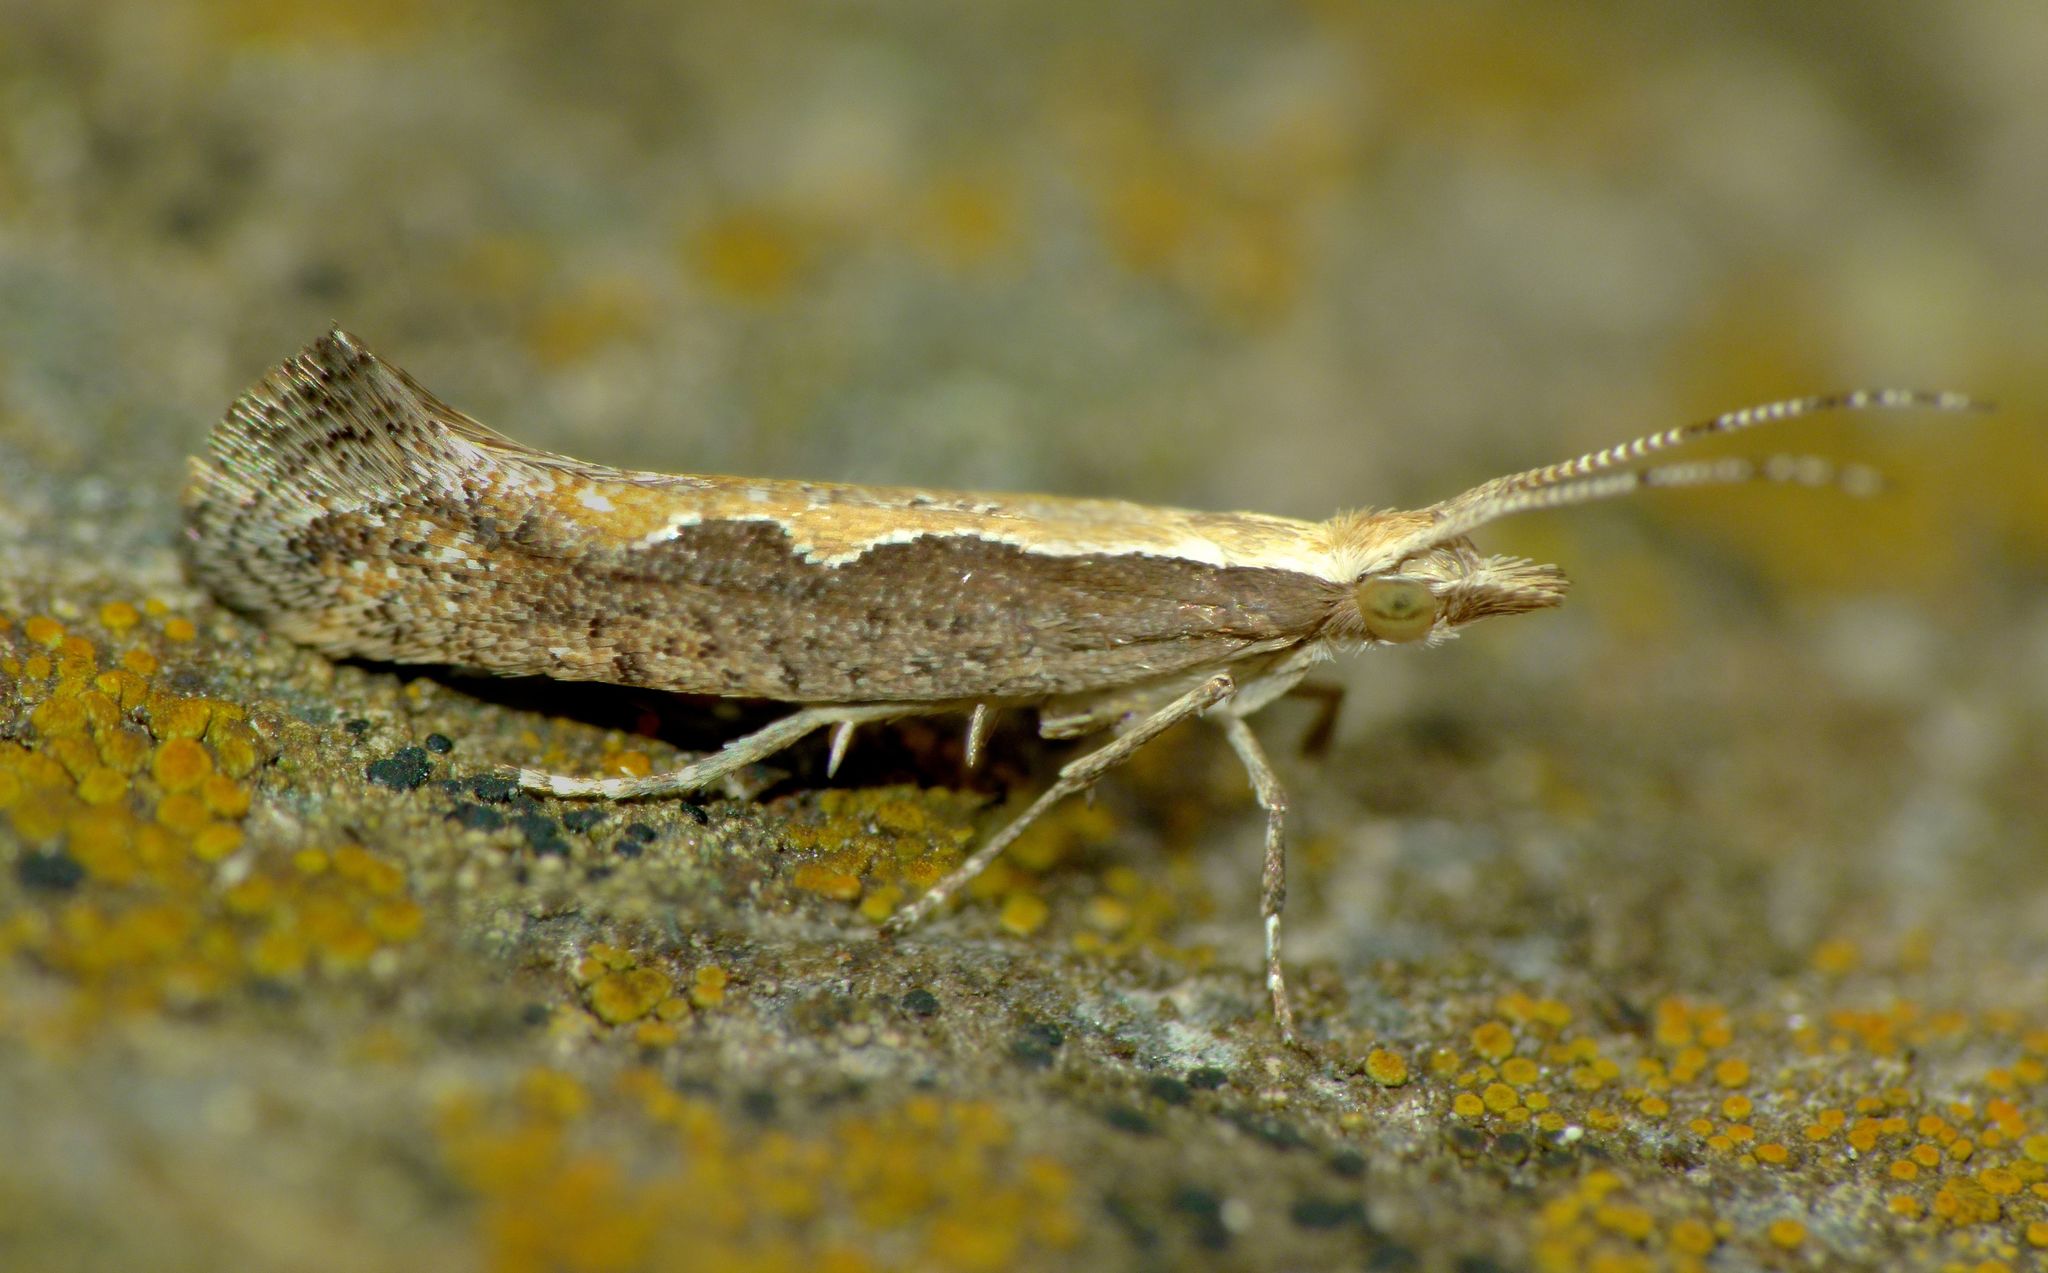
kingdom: Animalia
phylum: Arthropoda
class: Insecta
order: Lepidoptera
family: Plutellidae
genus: Plutella
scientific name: Plutella xylostella
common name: Diamond-back moth
